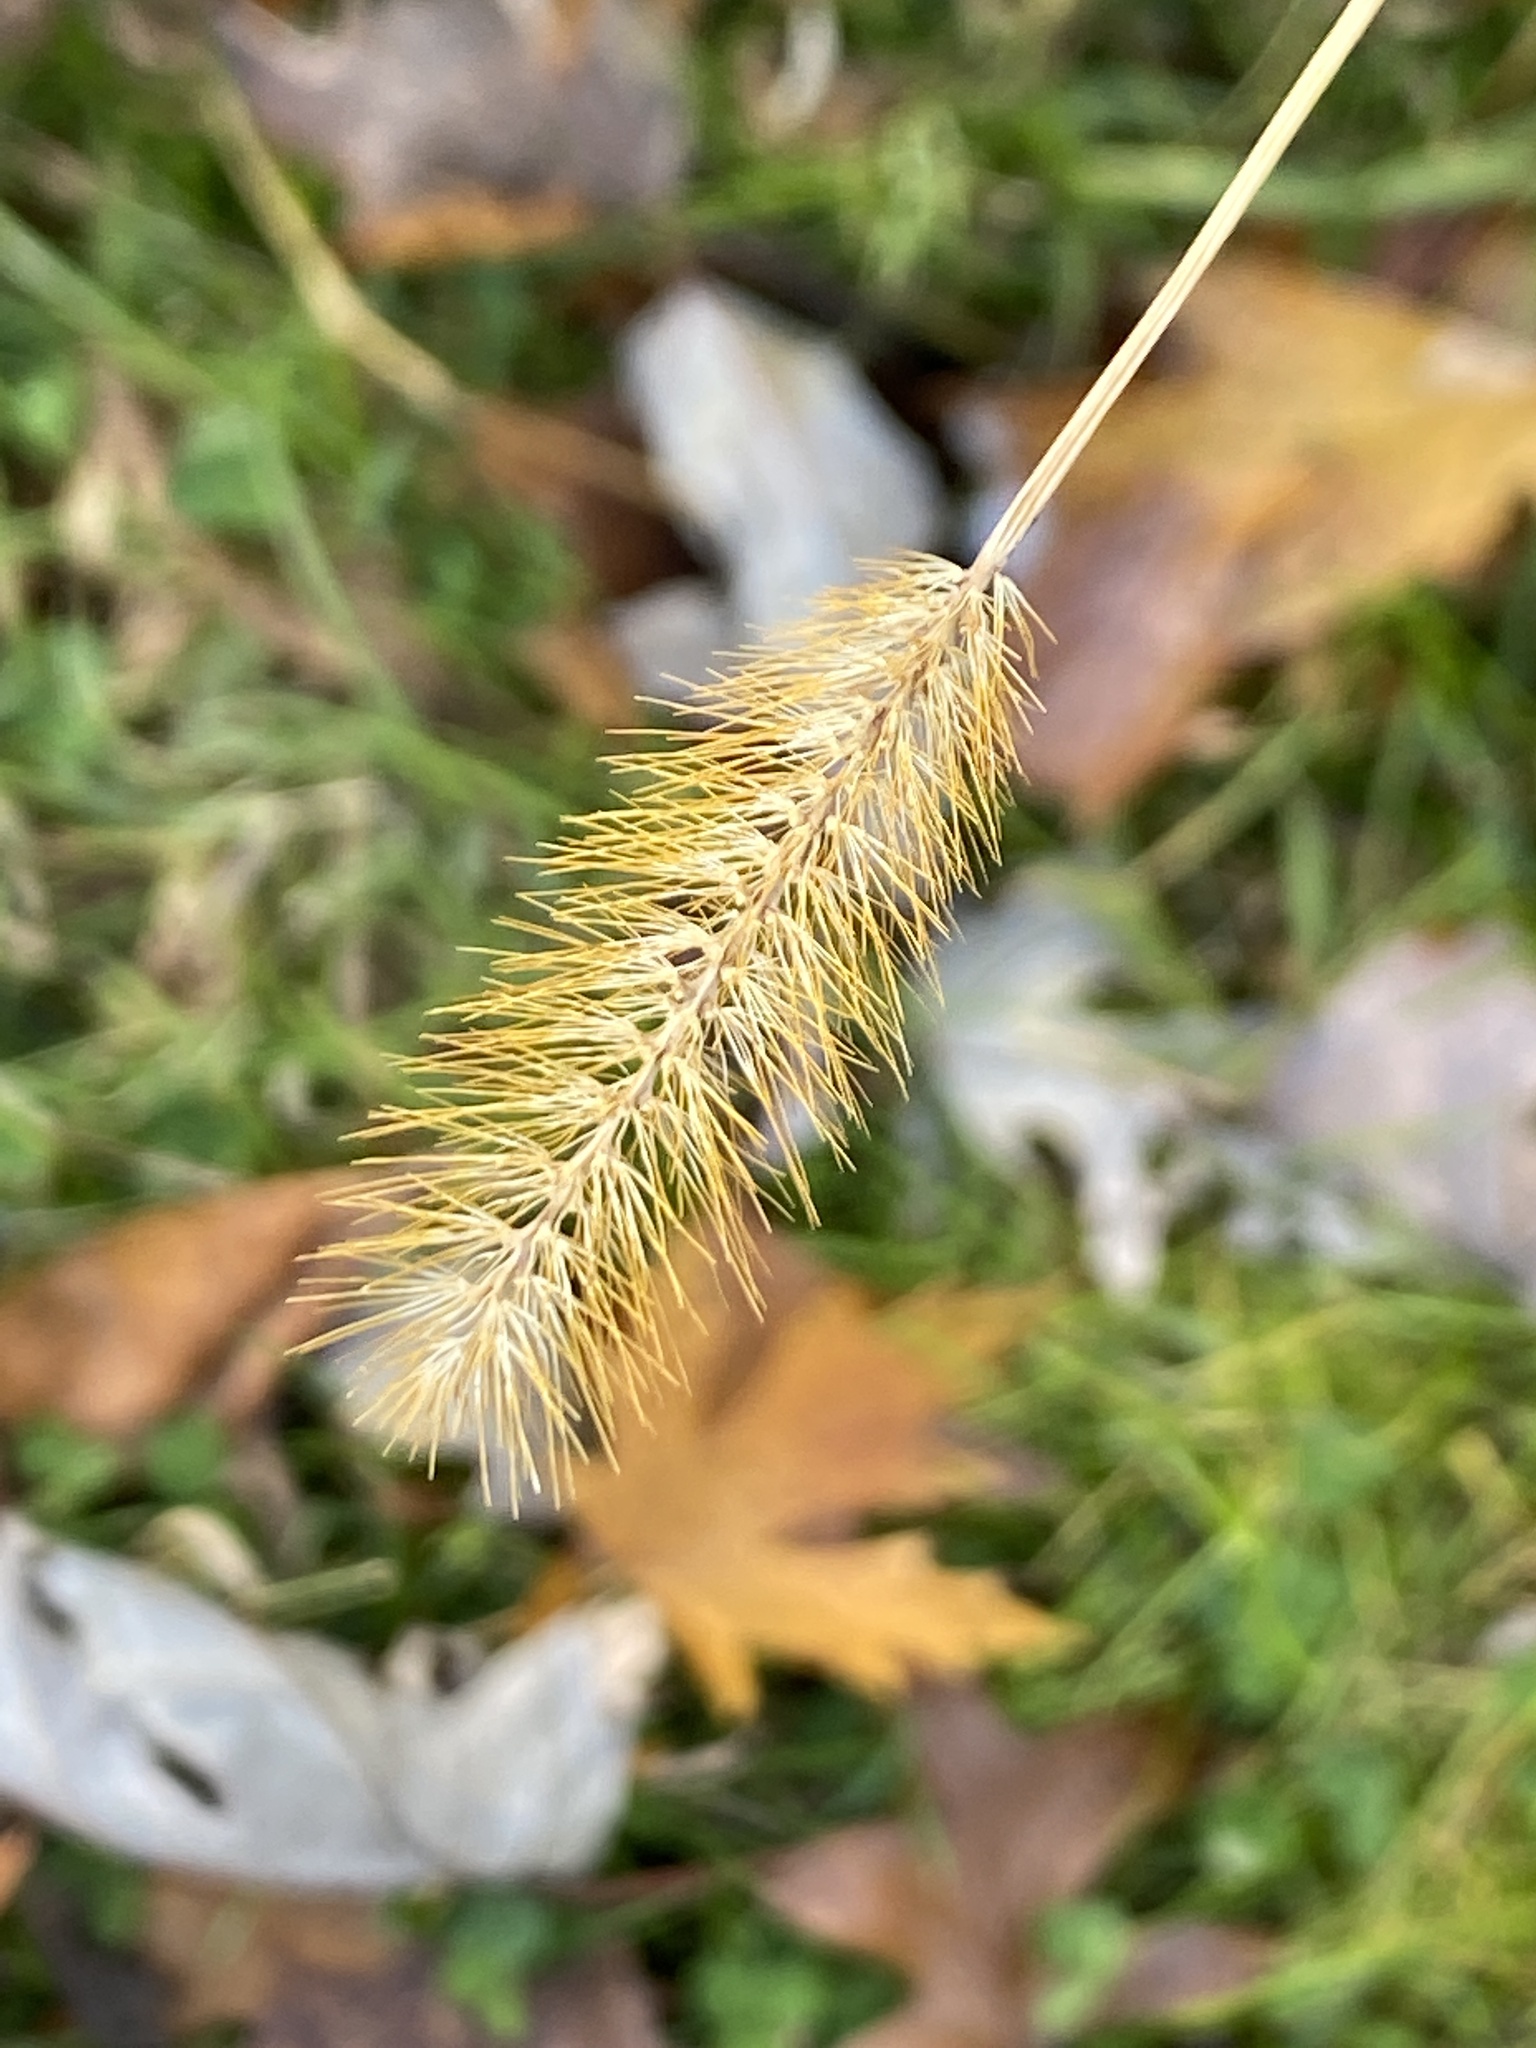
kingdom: Plantae
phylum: Tracheophyta
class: Liliopsida
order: Poales
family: Poaceae
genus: Setaria
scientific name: Setaria pumila
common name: Yellow bristle-grass
